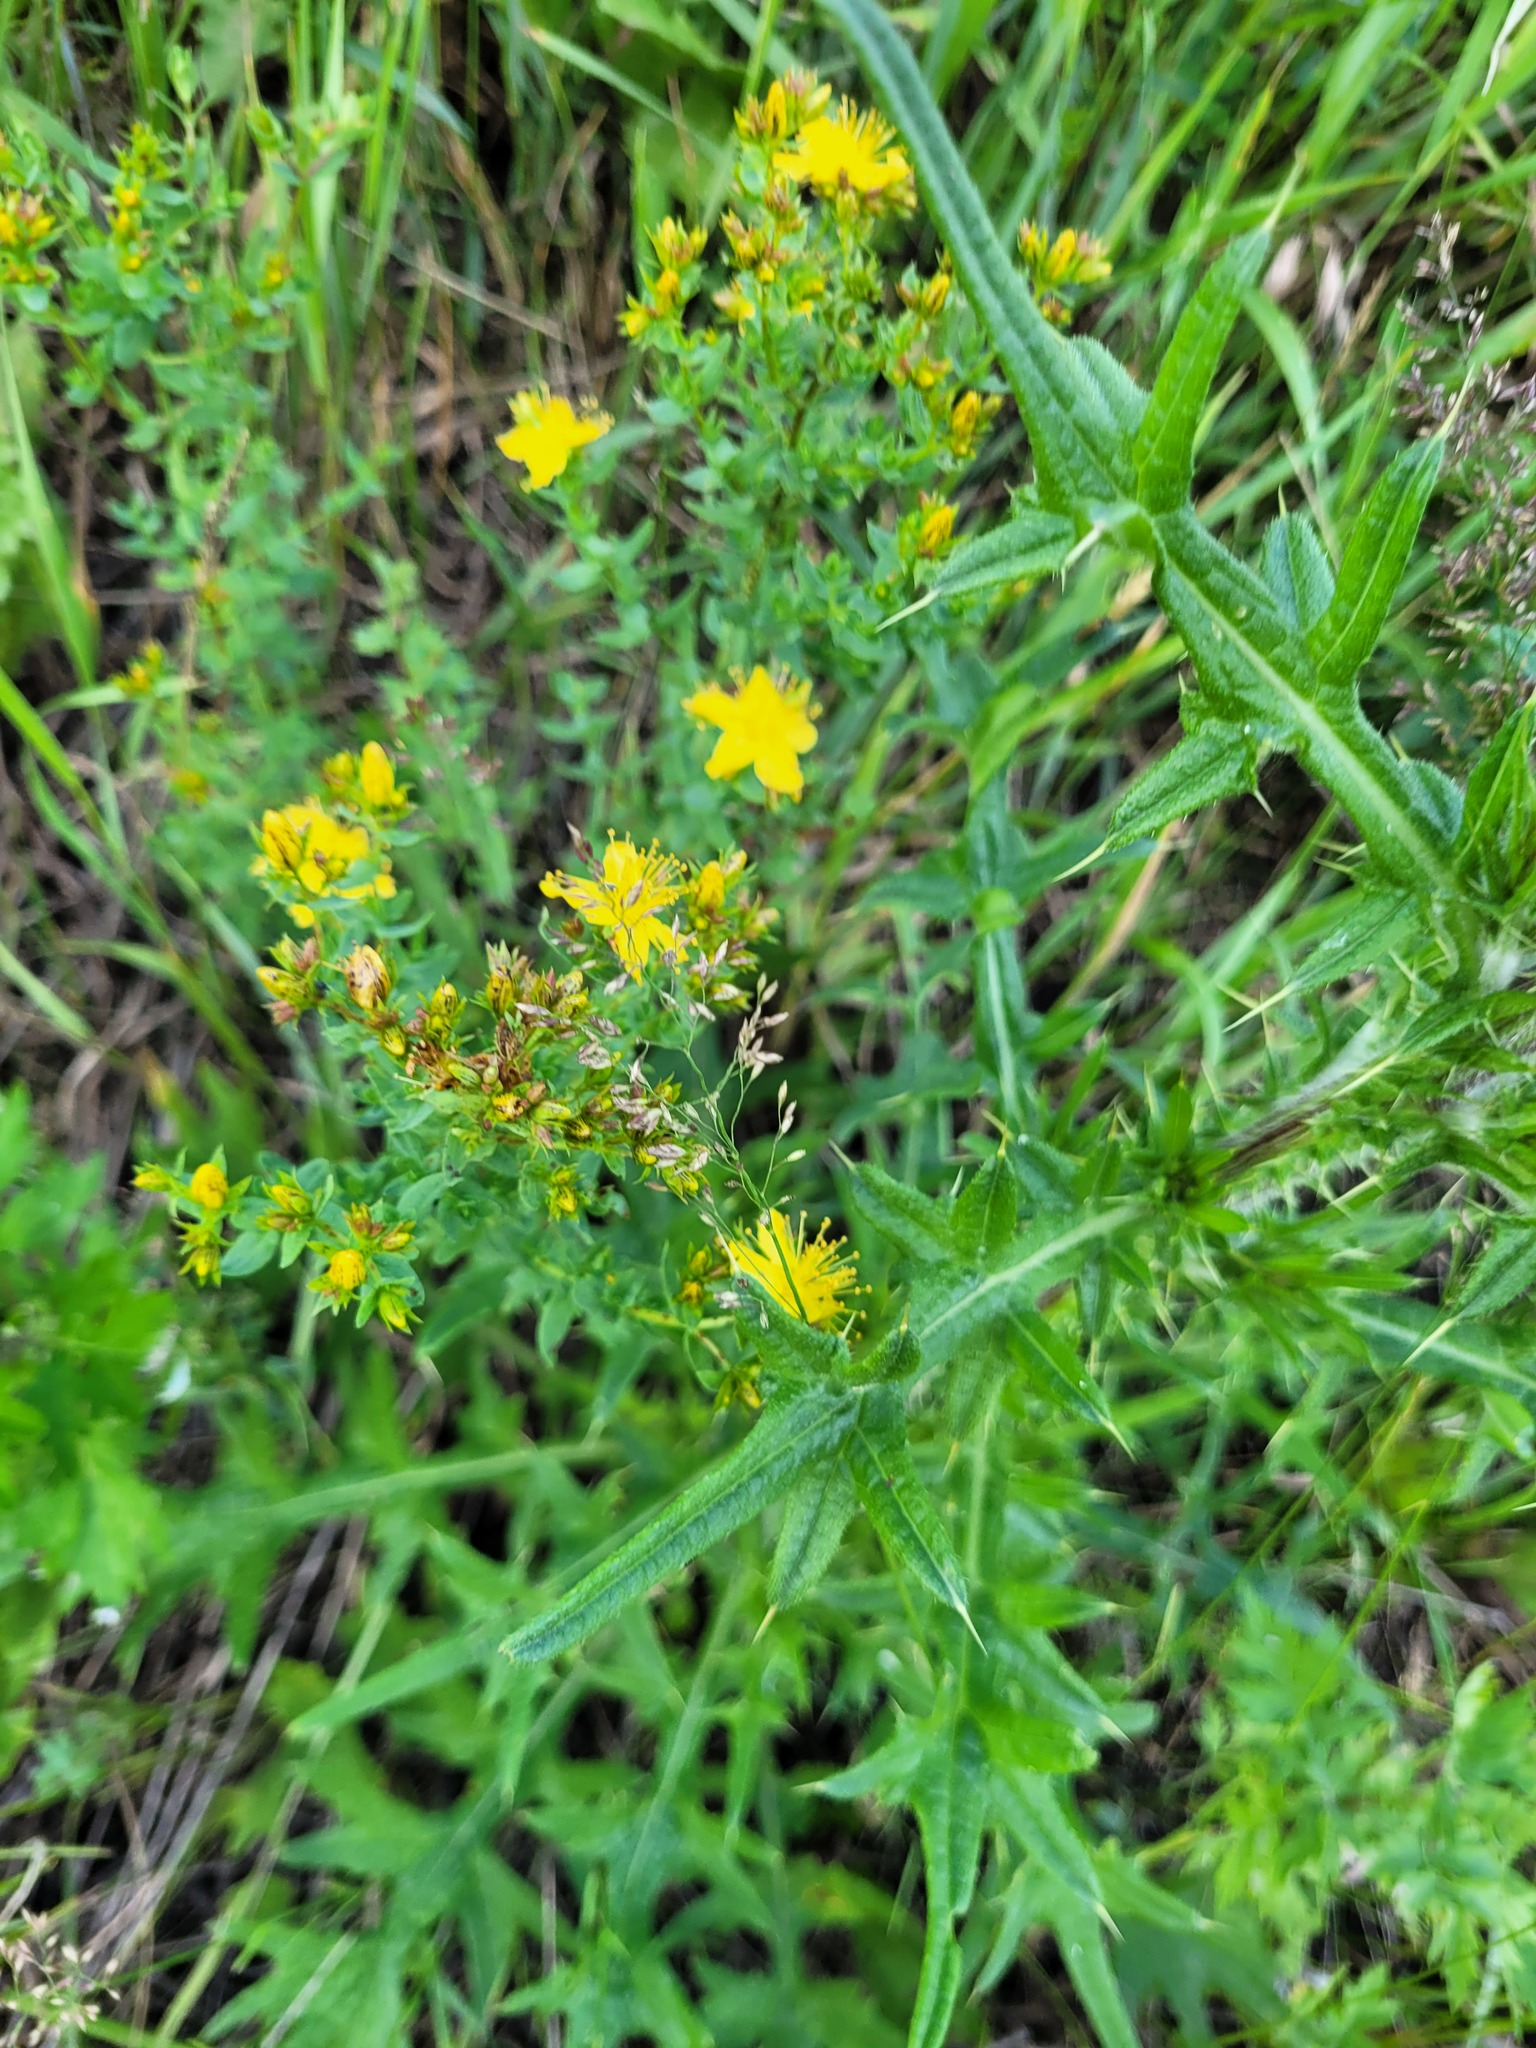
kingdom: Plantae
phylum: Tracheophyta
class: Magnoliopsida
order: Malpighiales
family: Hypericaceae
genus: Hypericum
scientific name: Hypericum perforatum
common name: Common st. johnswort
